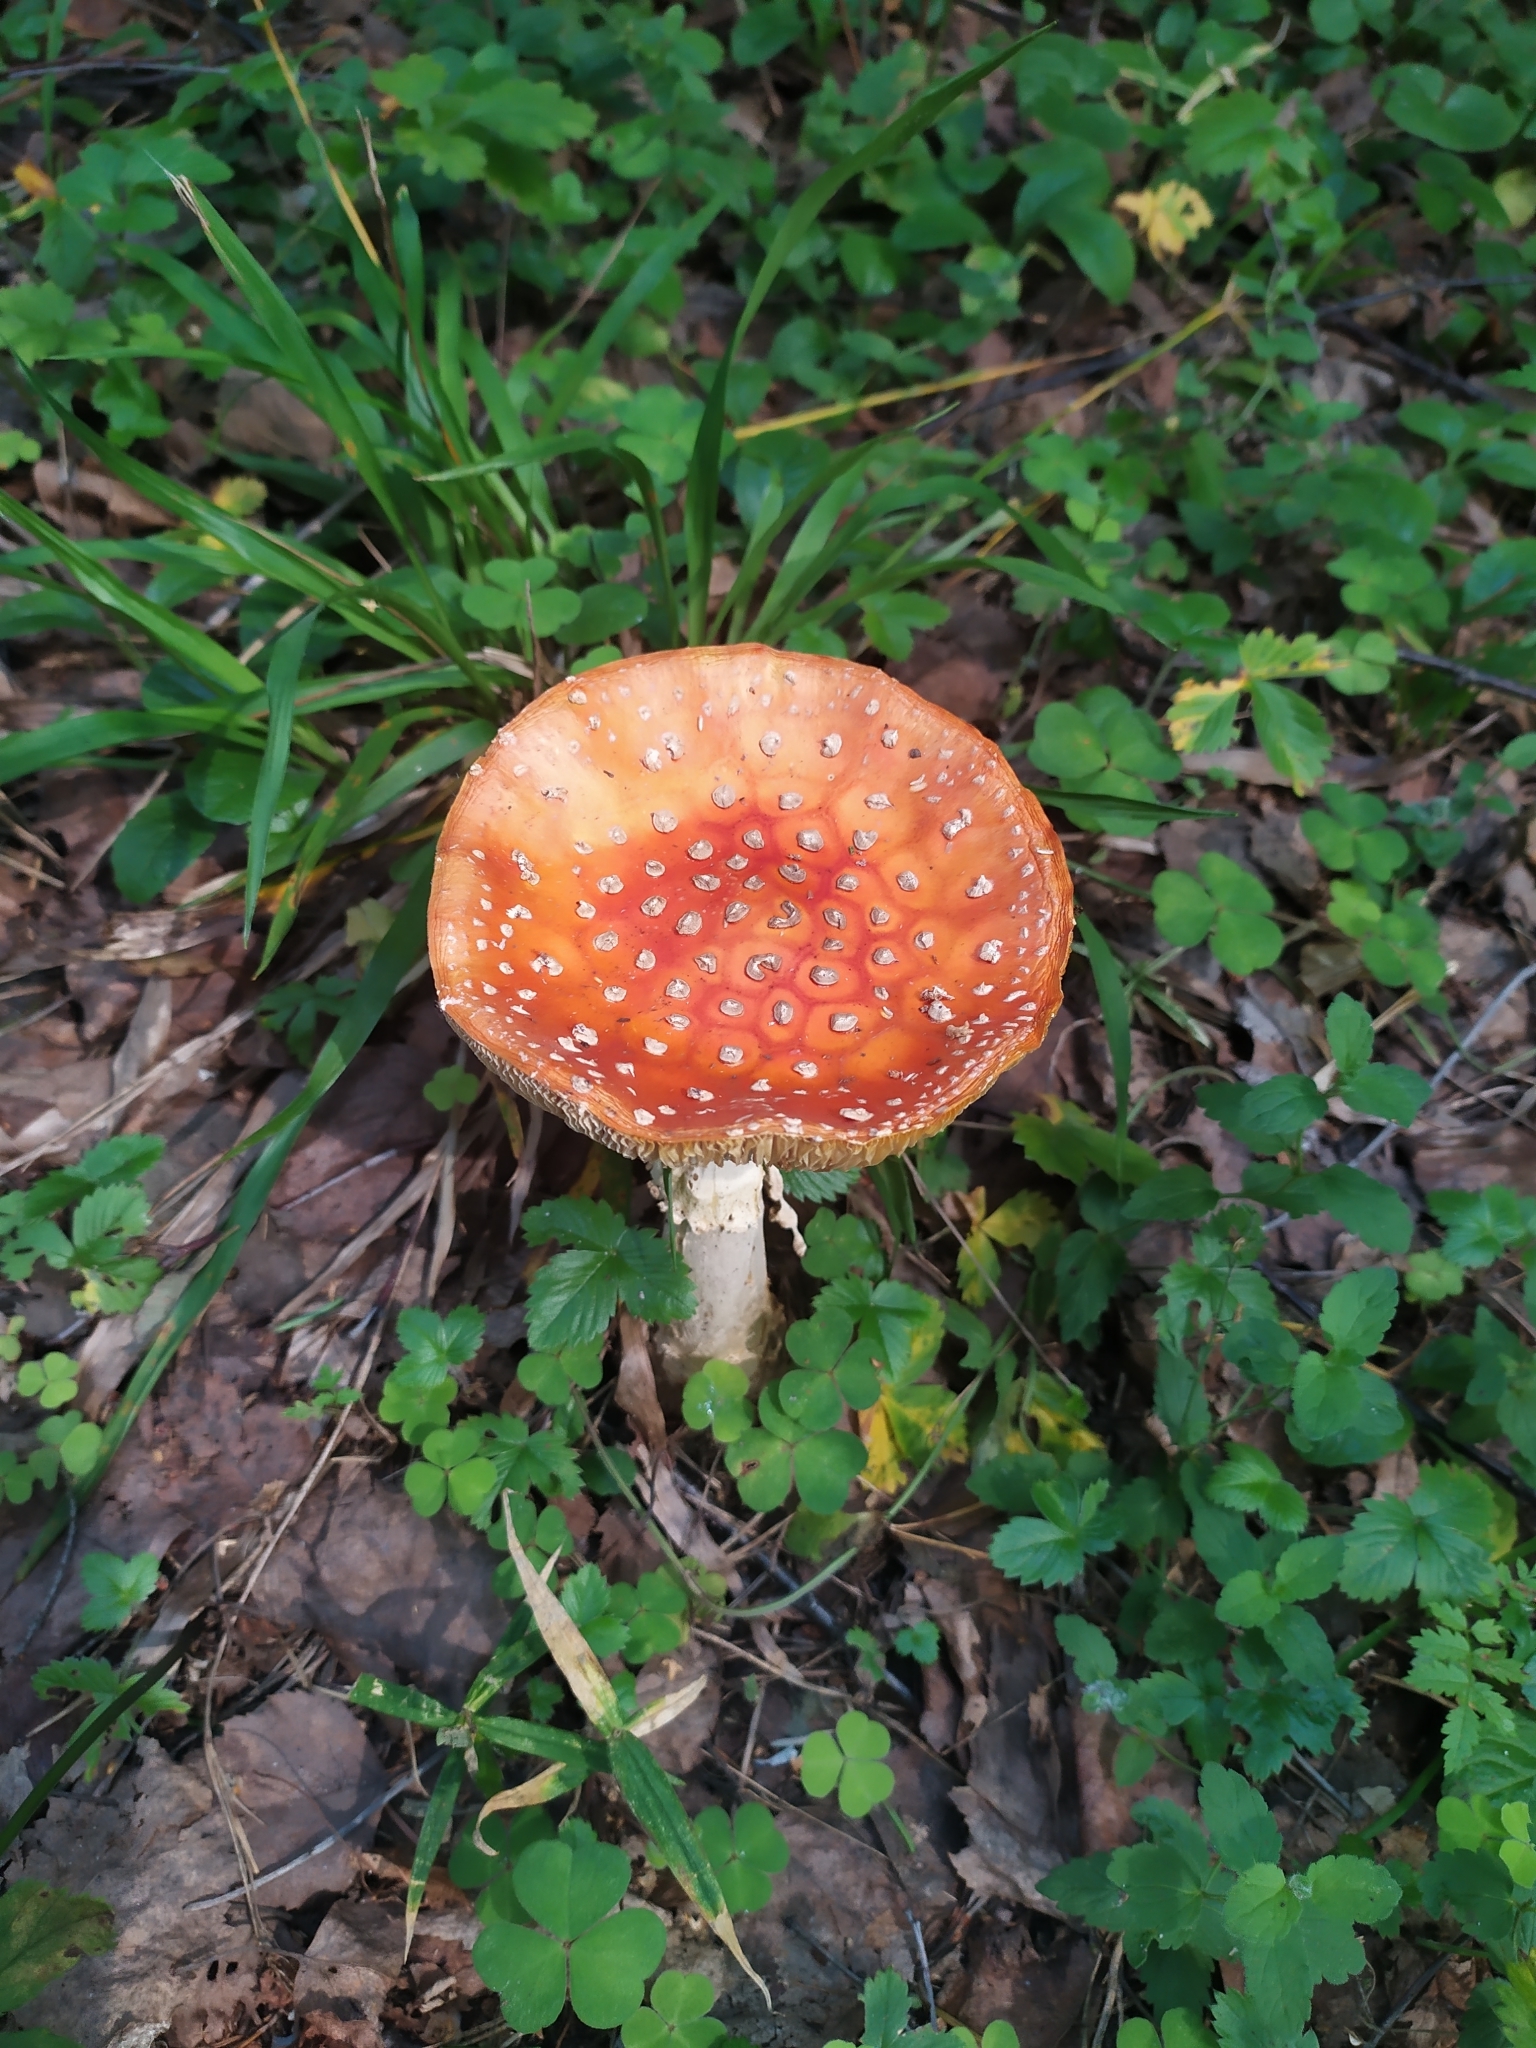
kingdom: Fungi
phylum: Basidiomycota
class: Agaricomycetes
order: Agaricales
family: Amanitaceae
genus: Amanita
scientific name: Amanita muscaria
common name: Fly agaric
